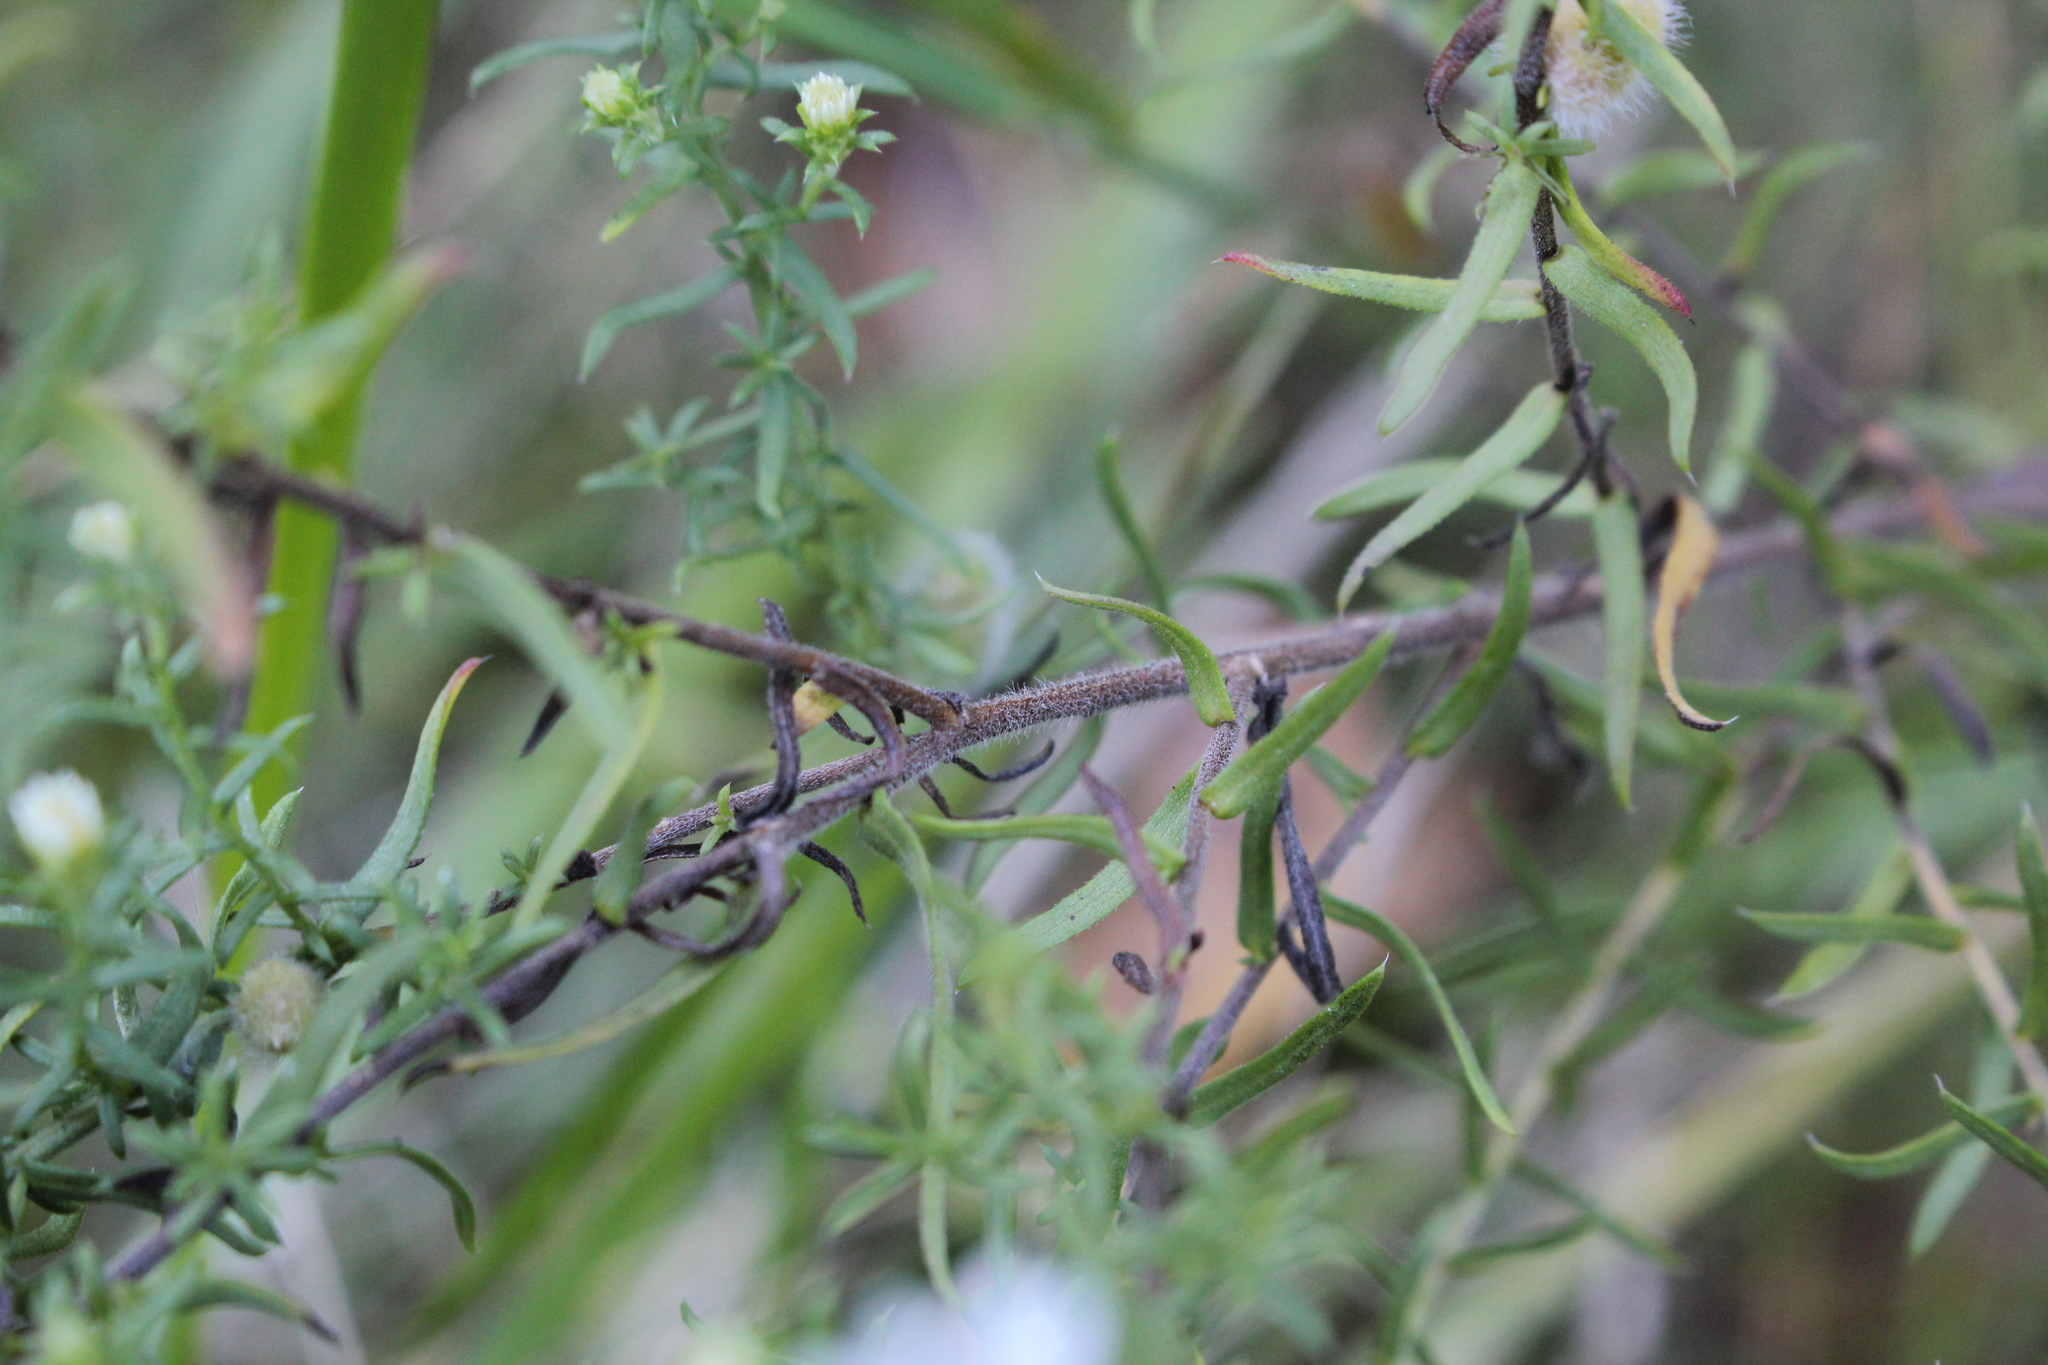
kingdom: Plantae
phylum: Tracheophyta
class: Magnoliopsida
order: Asterales
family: Asteraceae
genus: Symphyotrichum
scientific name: Symphyotrichum ericoides
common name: Heath aster
